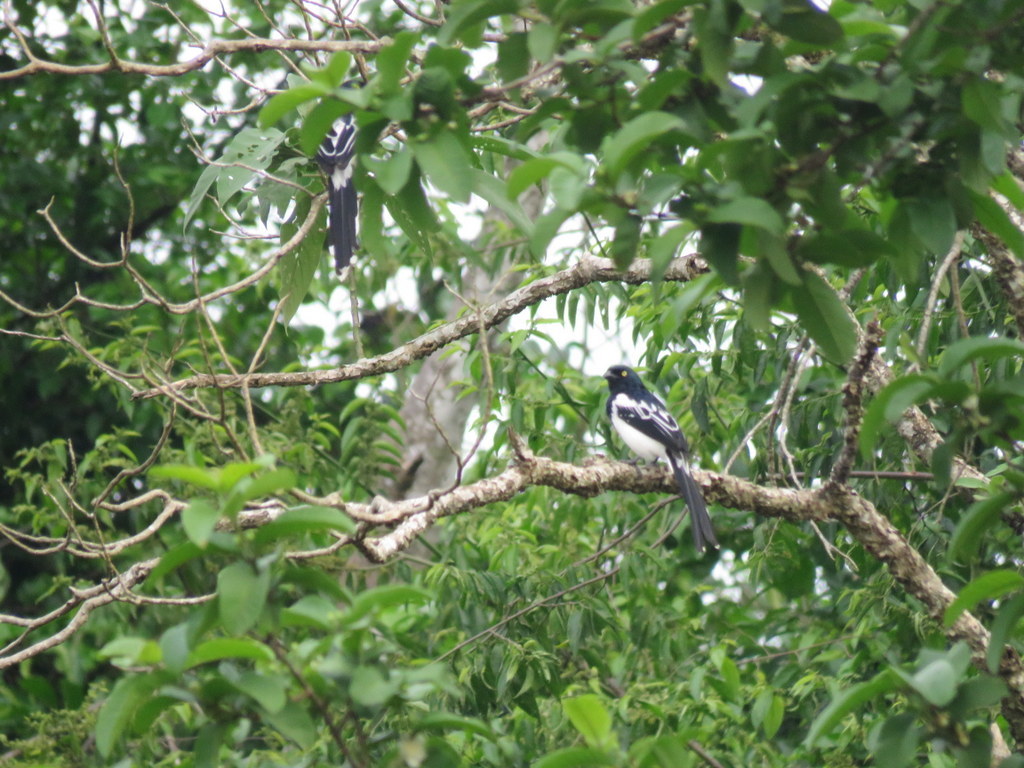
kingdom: Animalia
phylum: Chordata
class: Aves
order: Passeriformes
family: Thraupidae
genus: Cissopis
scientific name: Cissopis leverianus
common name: Magpie tanager
